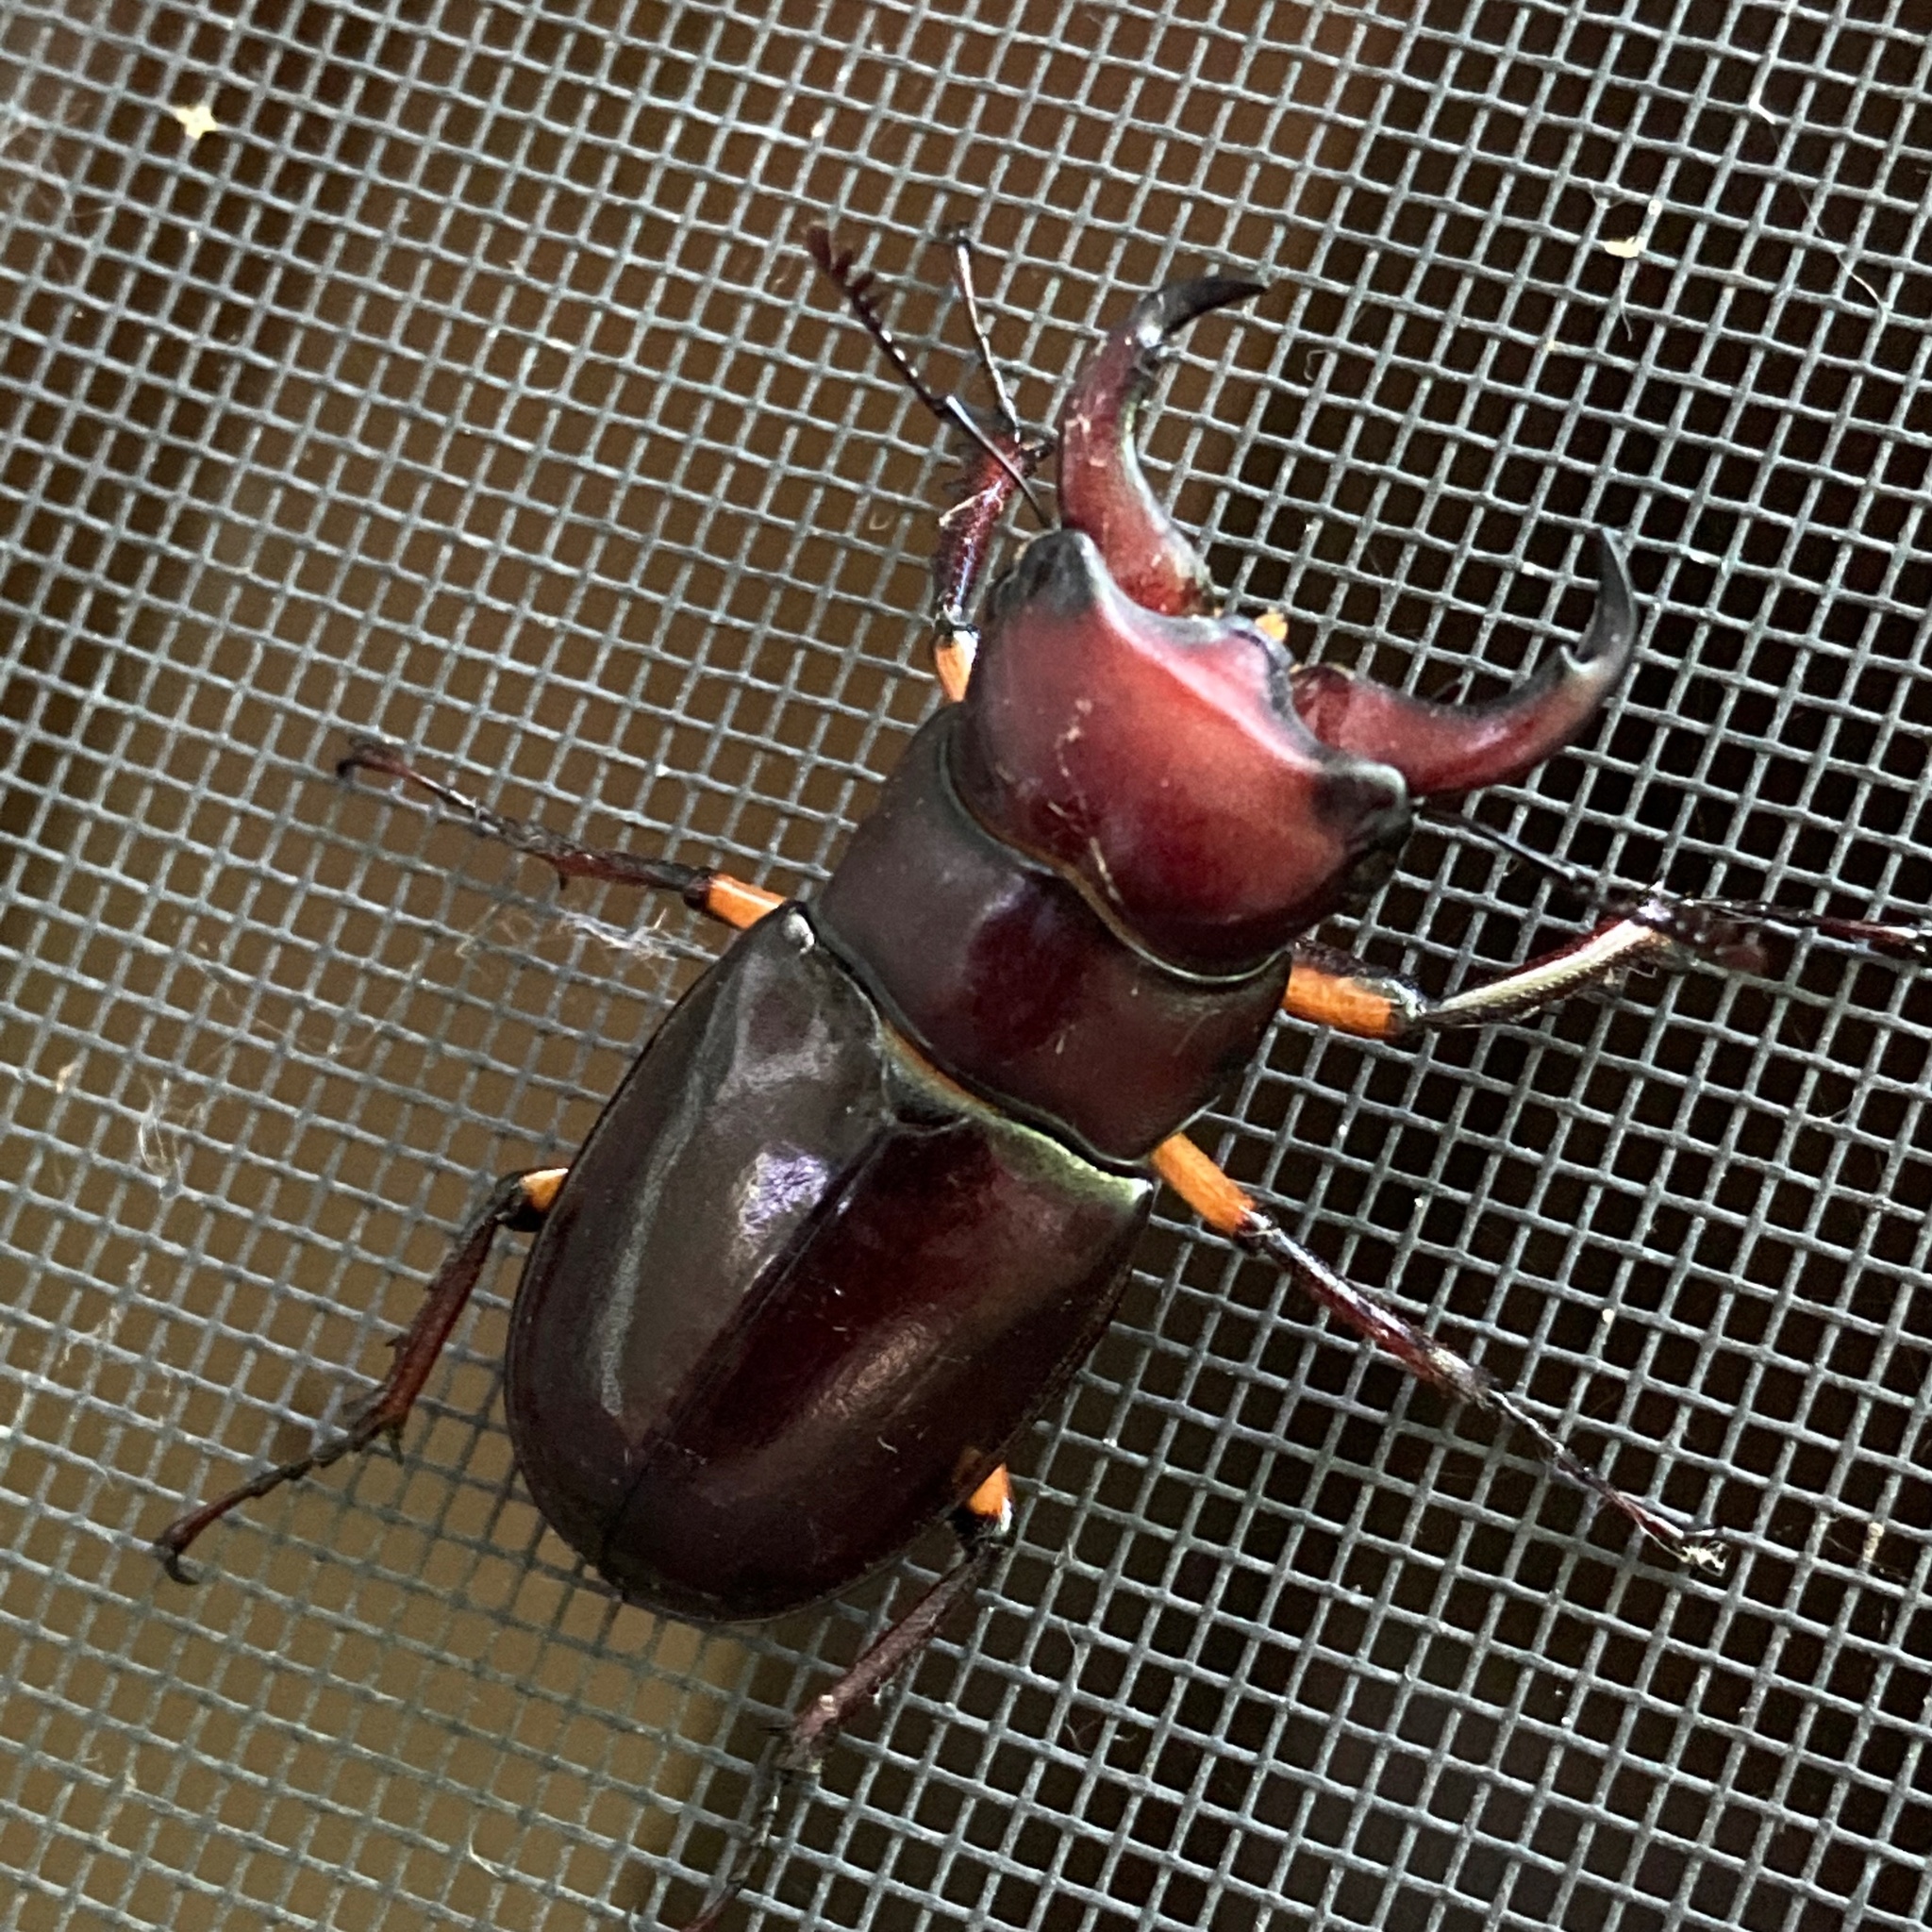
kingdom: Animalia
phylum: Arthropoda
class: Insecta
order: Coleoptera
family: Lucanidae
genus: Lucanus
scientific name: Lucanus capreolus
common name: Stag beetle
